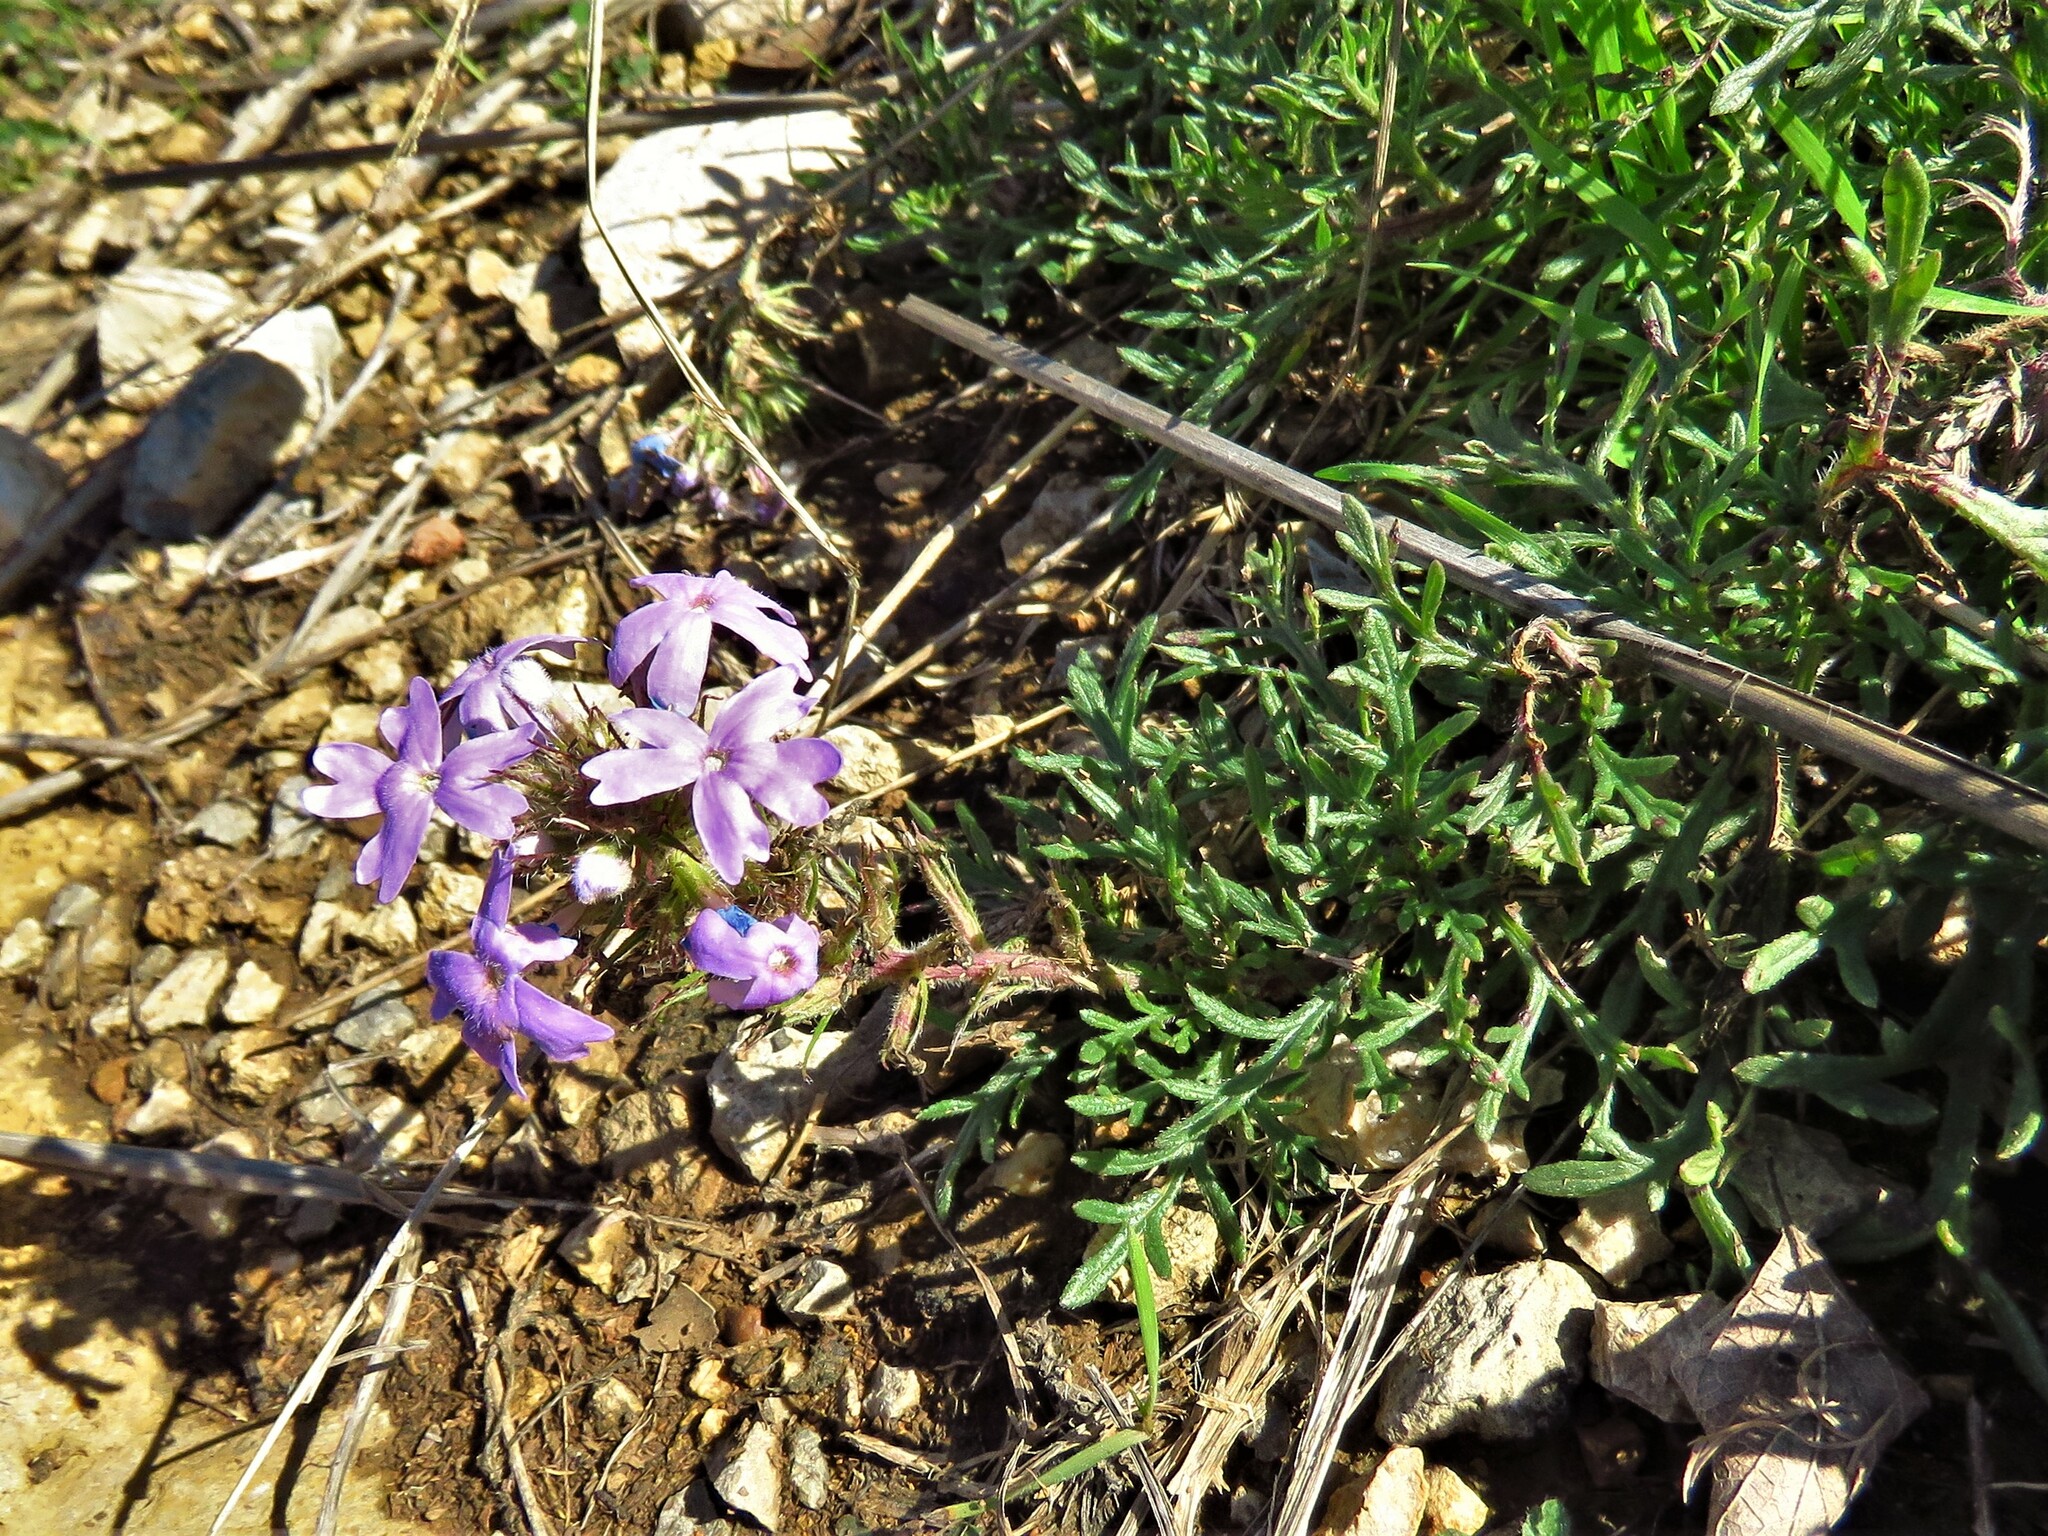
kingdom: Plantae
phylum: Tracheophyta
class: Magnoliopsida
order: Lamiales
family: Verbenaceae
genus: Verbena
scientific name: Verbena bipinnatifida
